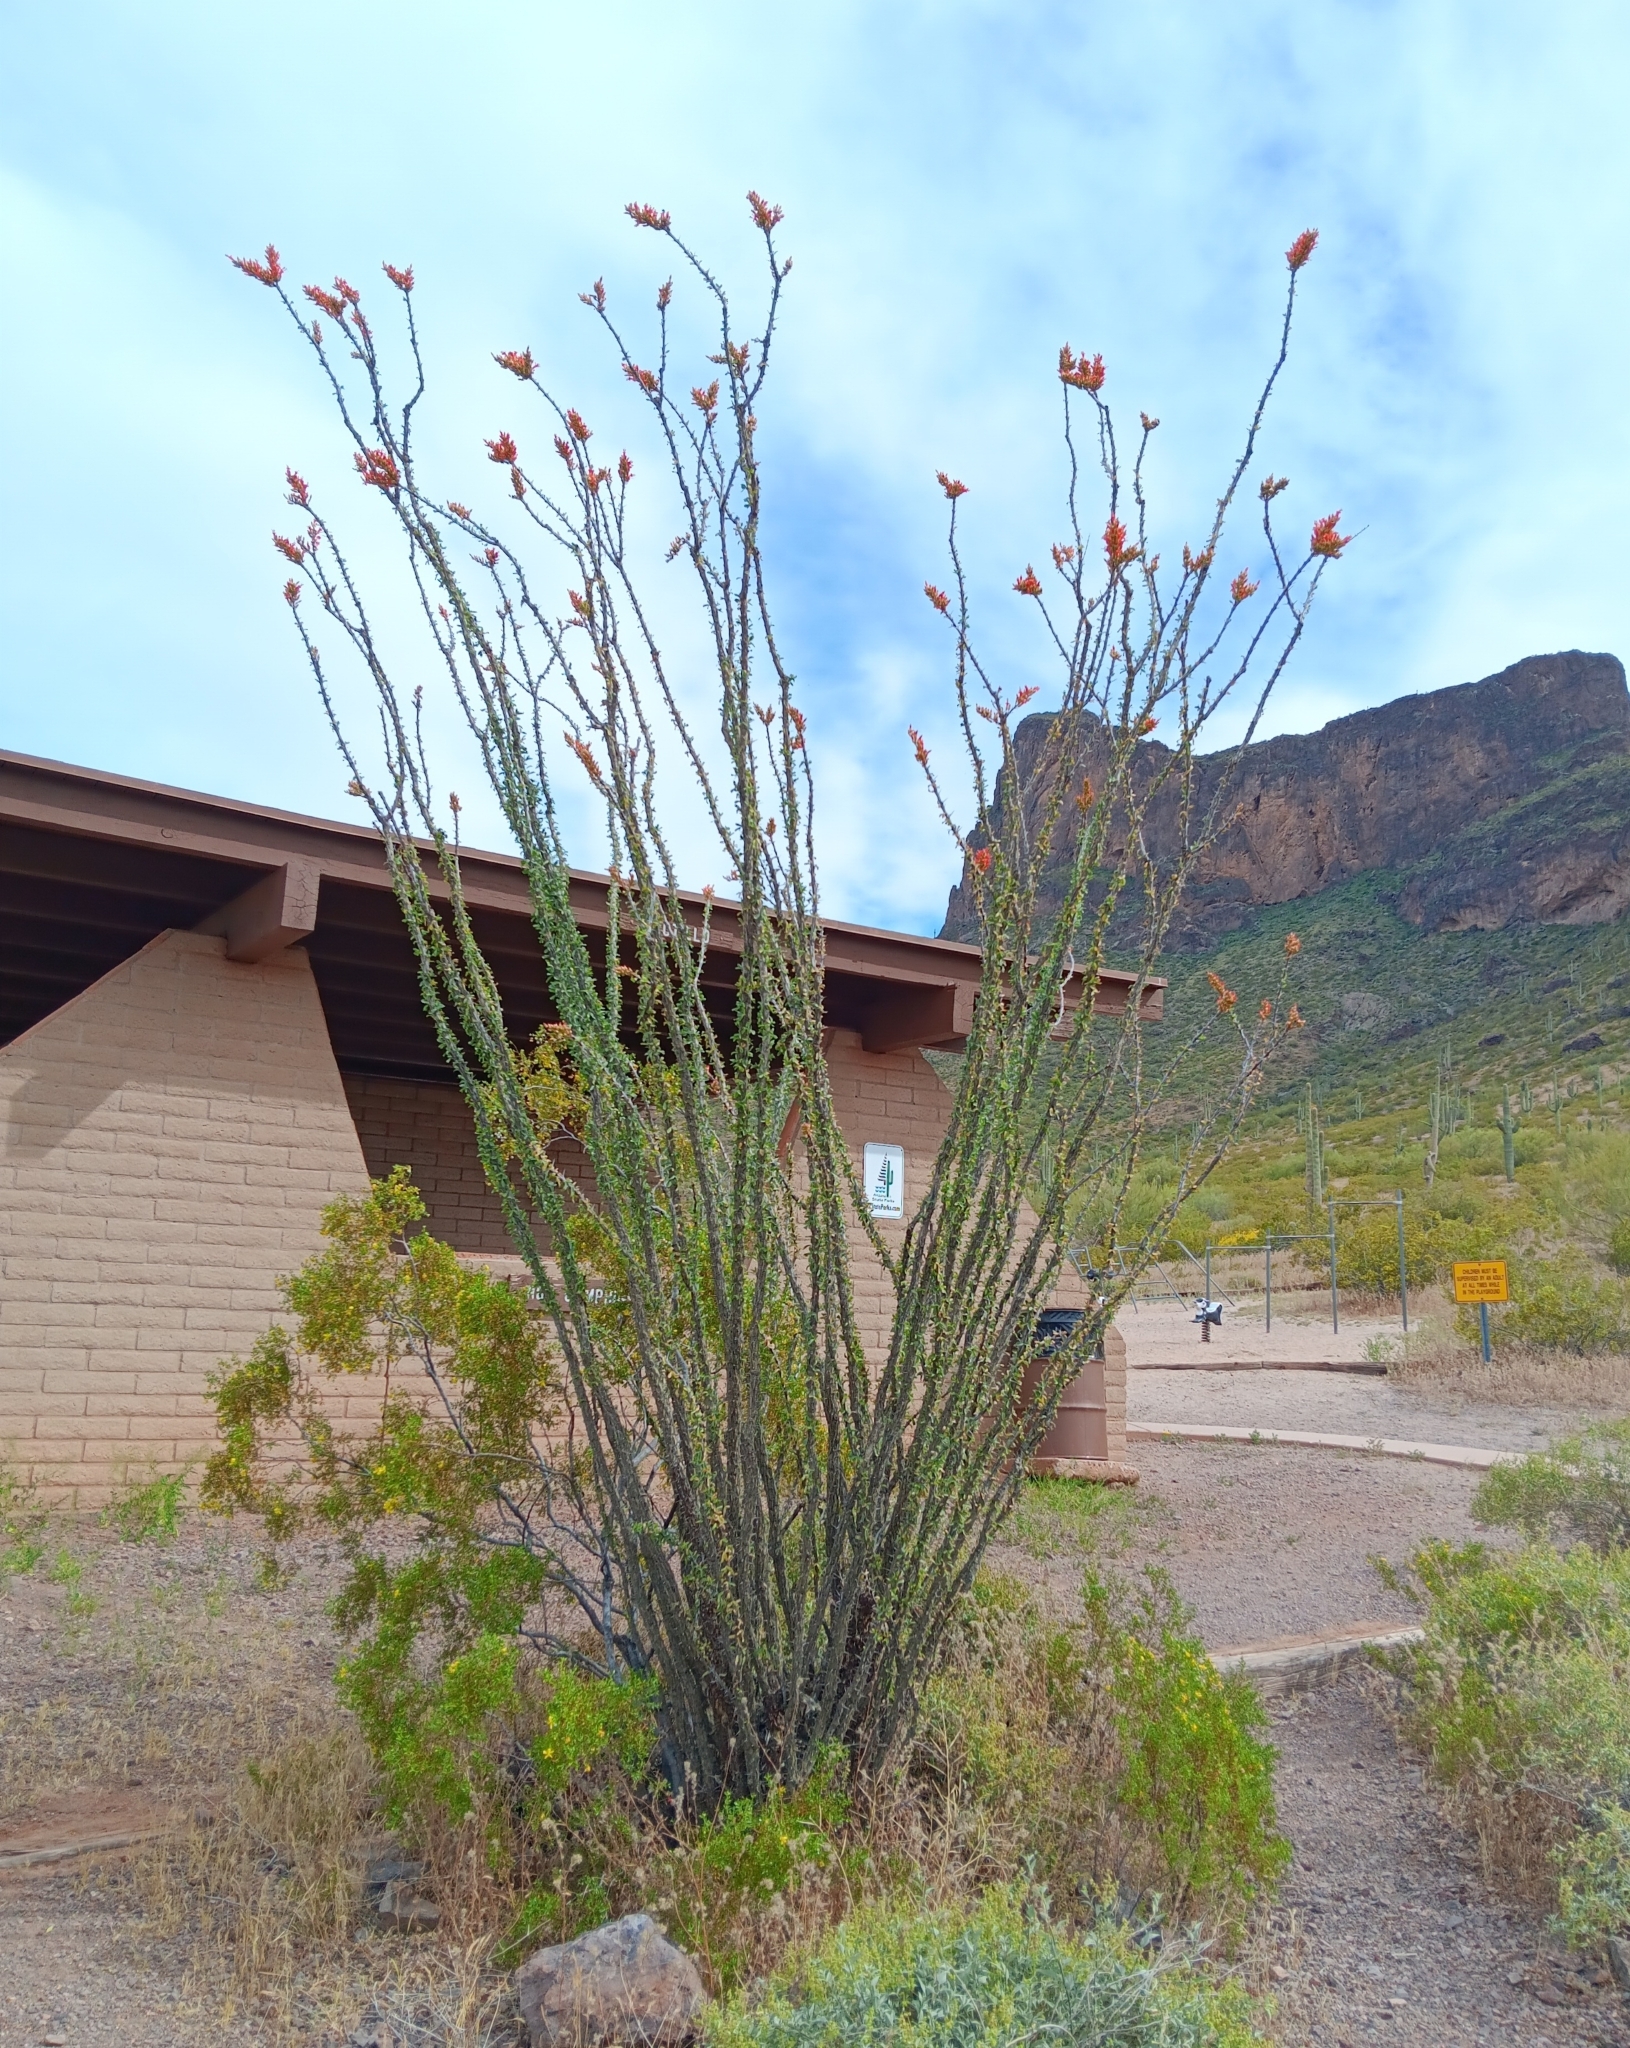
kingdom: Plantae
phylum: Tracheophyta
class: Magnoliopsida
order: Ericales
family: Fouquieriaceae
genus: Fouquieria
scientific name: Fouquieria splendens
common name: Vine-cactus
